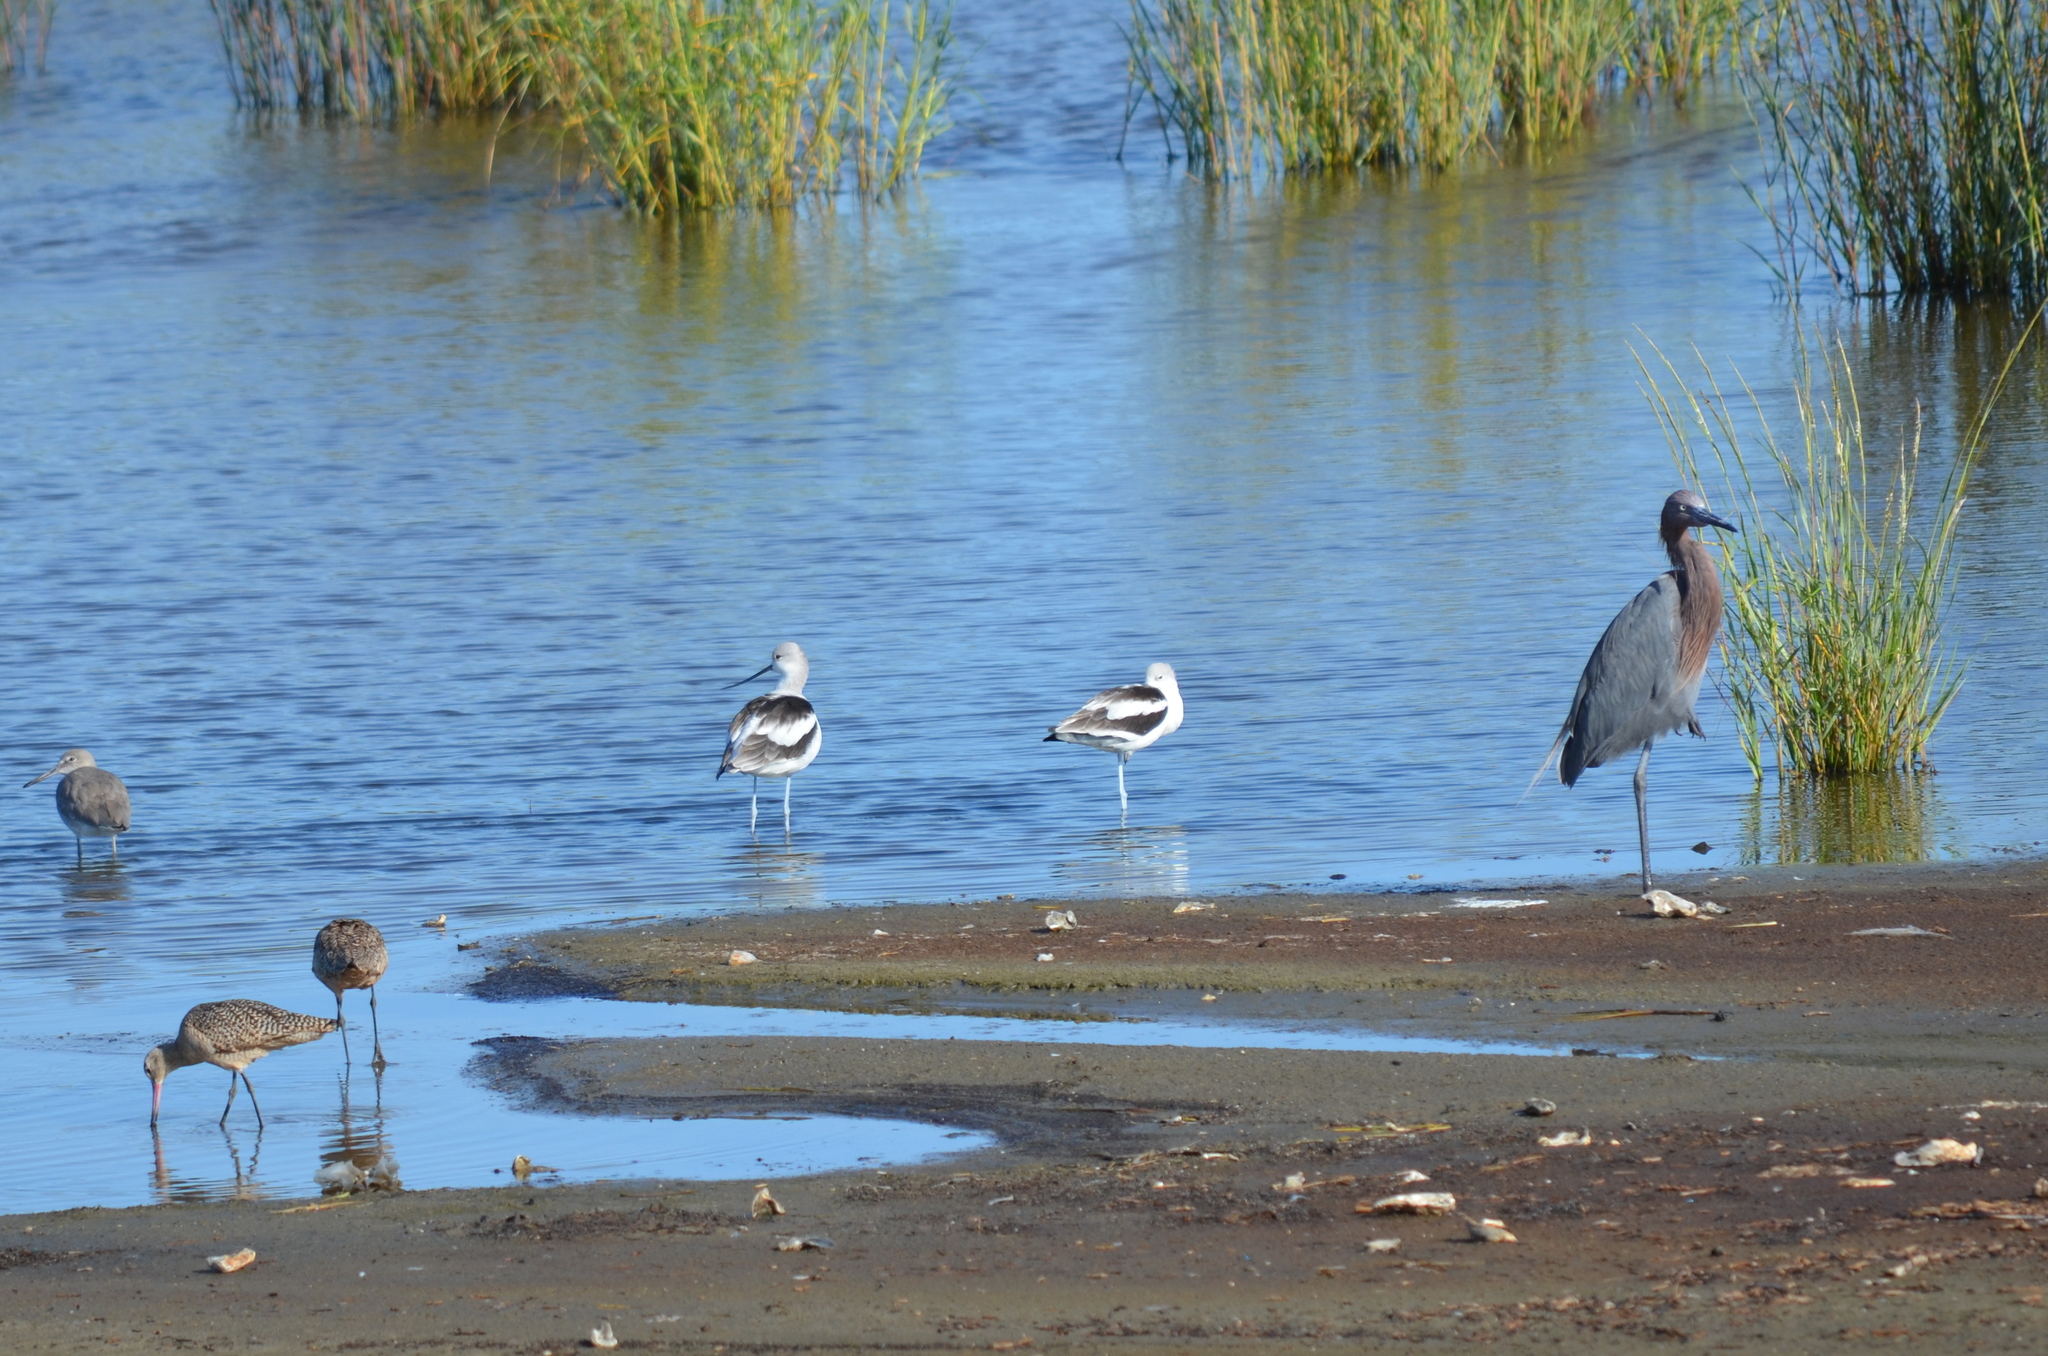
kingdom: Animalia
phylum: Chordata
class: Aves
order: Charadriiformes
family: Recurvirostridae
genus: Recurvirostra
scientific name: Recurvirostra americana
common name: American avocet
